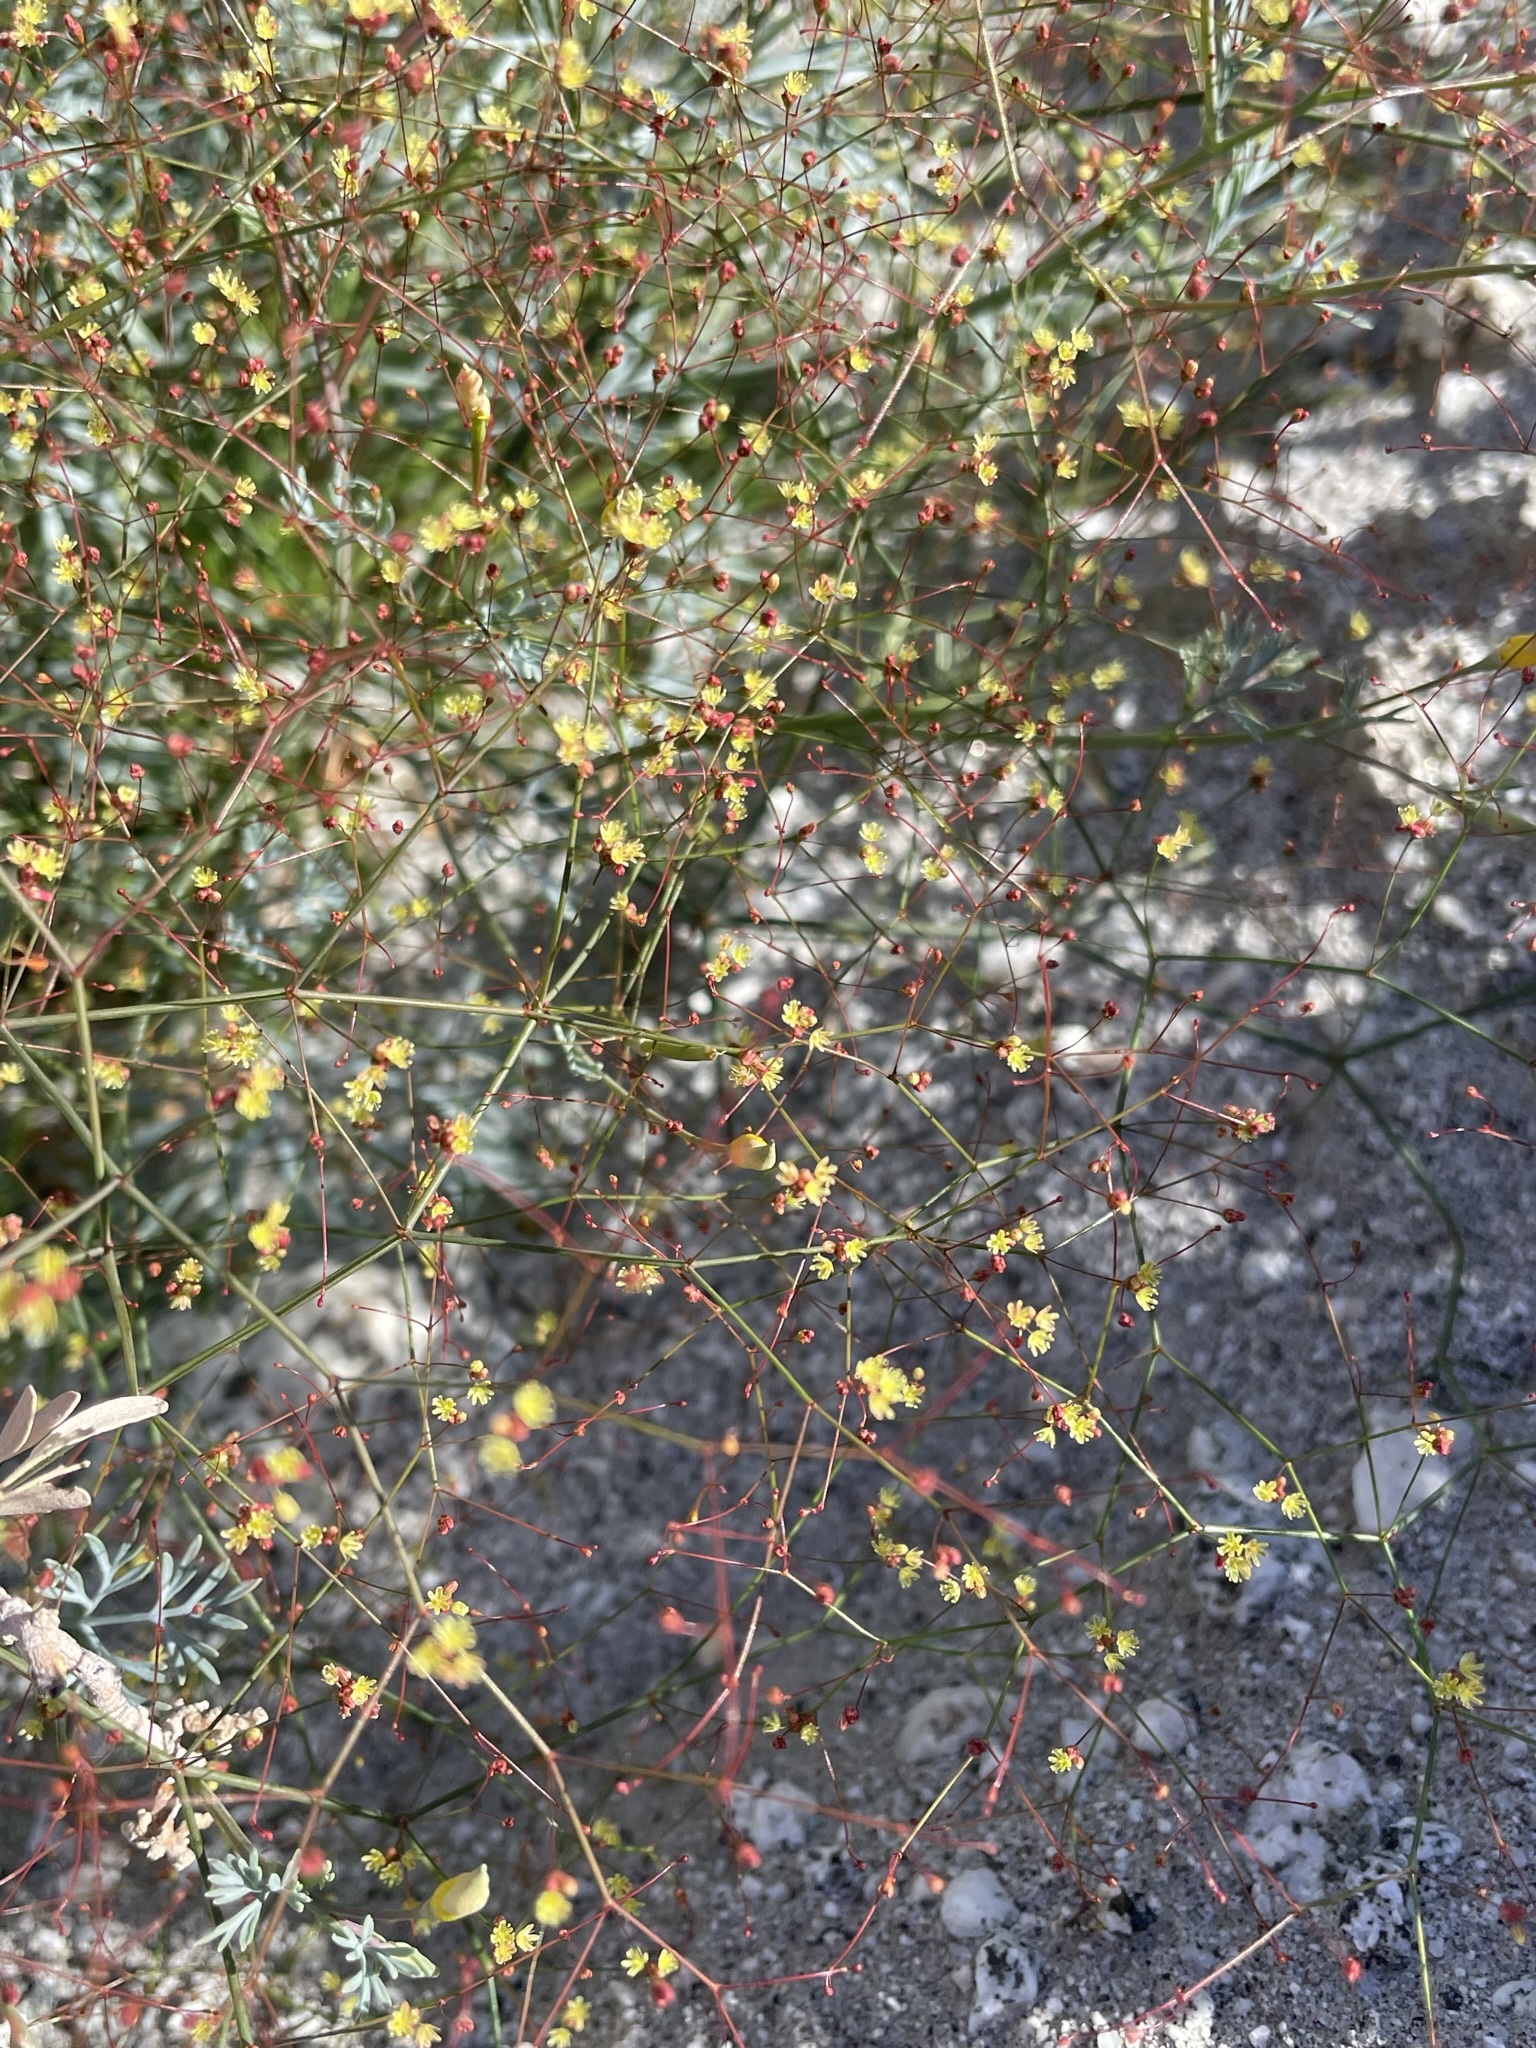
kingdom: Plantae
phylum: Tracheophyta
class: Magnoliopsida
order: Caryophyllales
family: Polygonaceae
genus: Eriogonum
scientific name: Eriogonum thomasii
